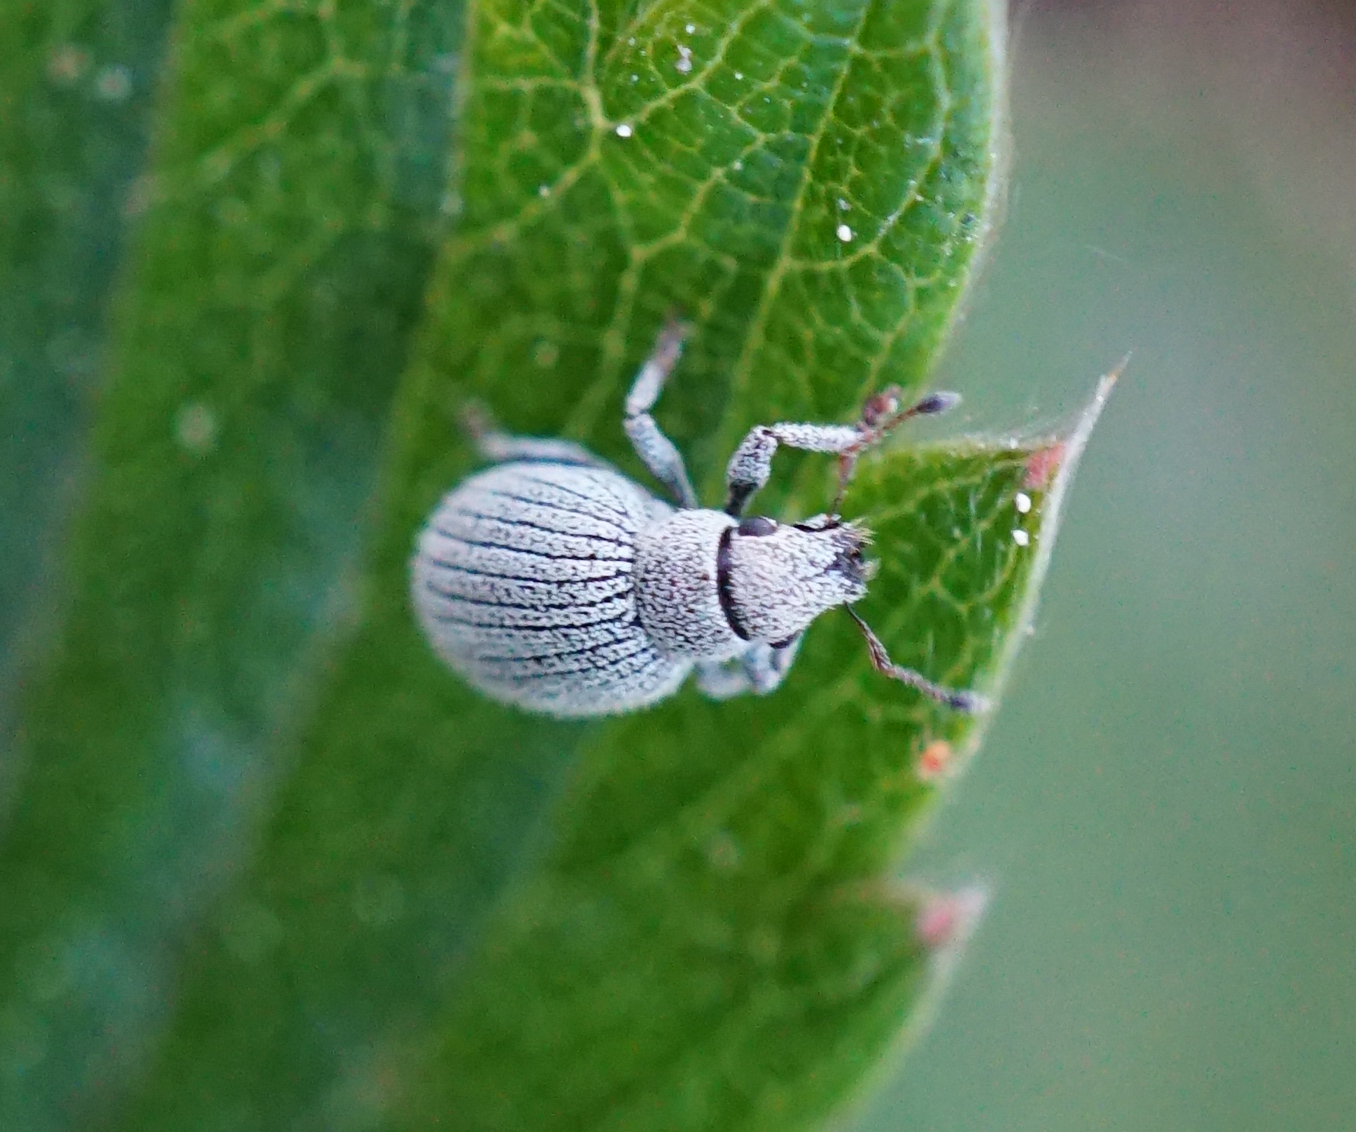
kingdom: Animalia
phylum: Arthropoda
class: Insecta
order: Coleoptera
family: Curculionidae
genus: Foucartia
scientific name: Foucartia squamulata
